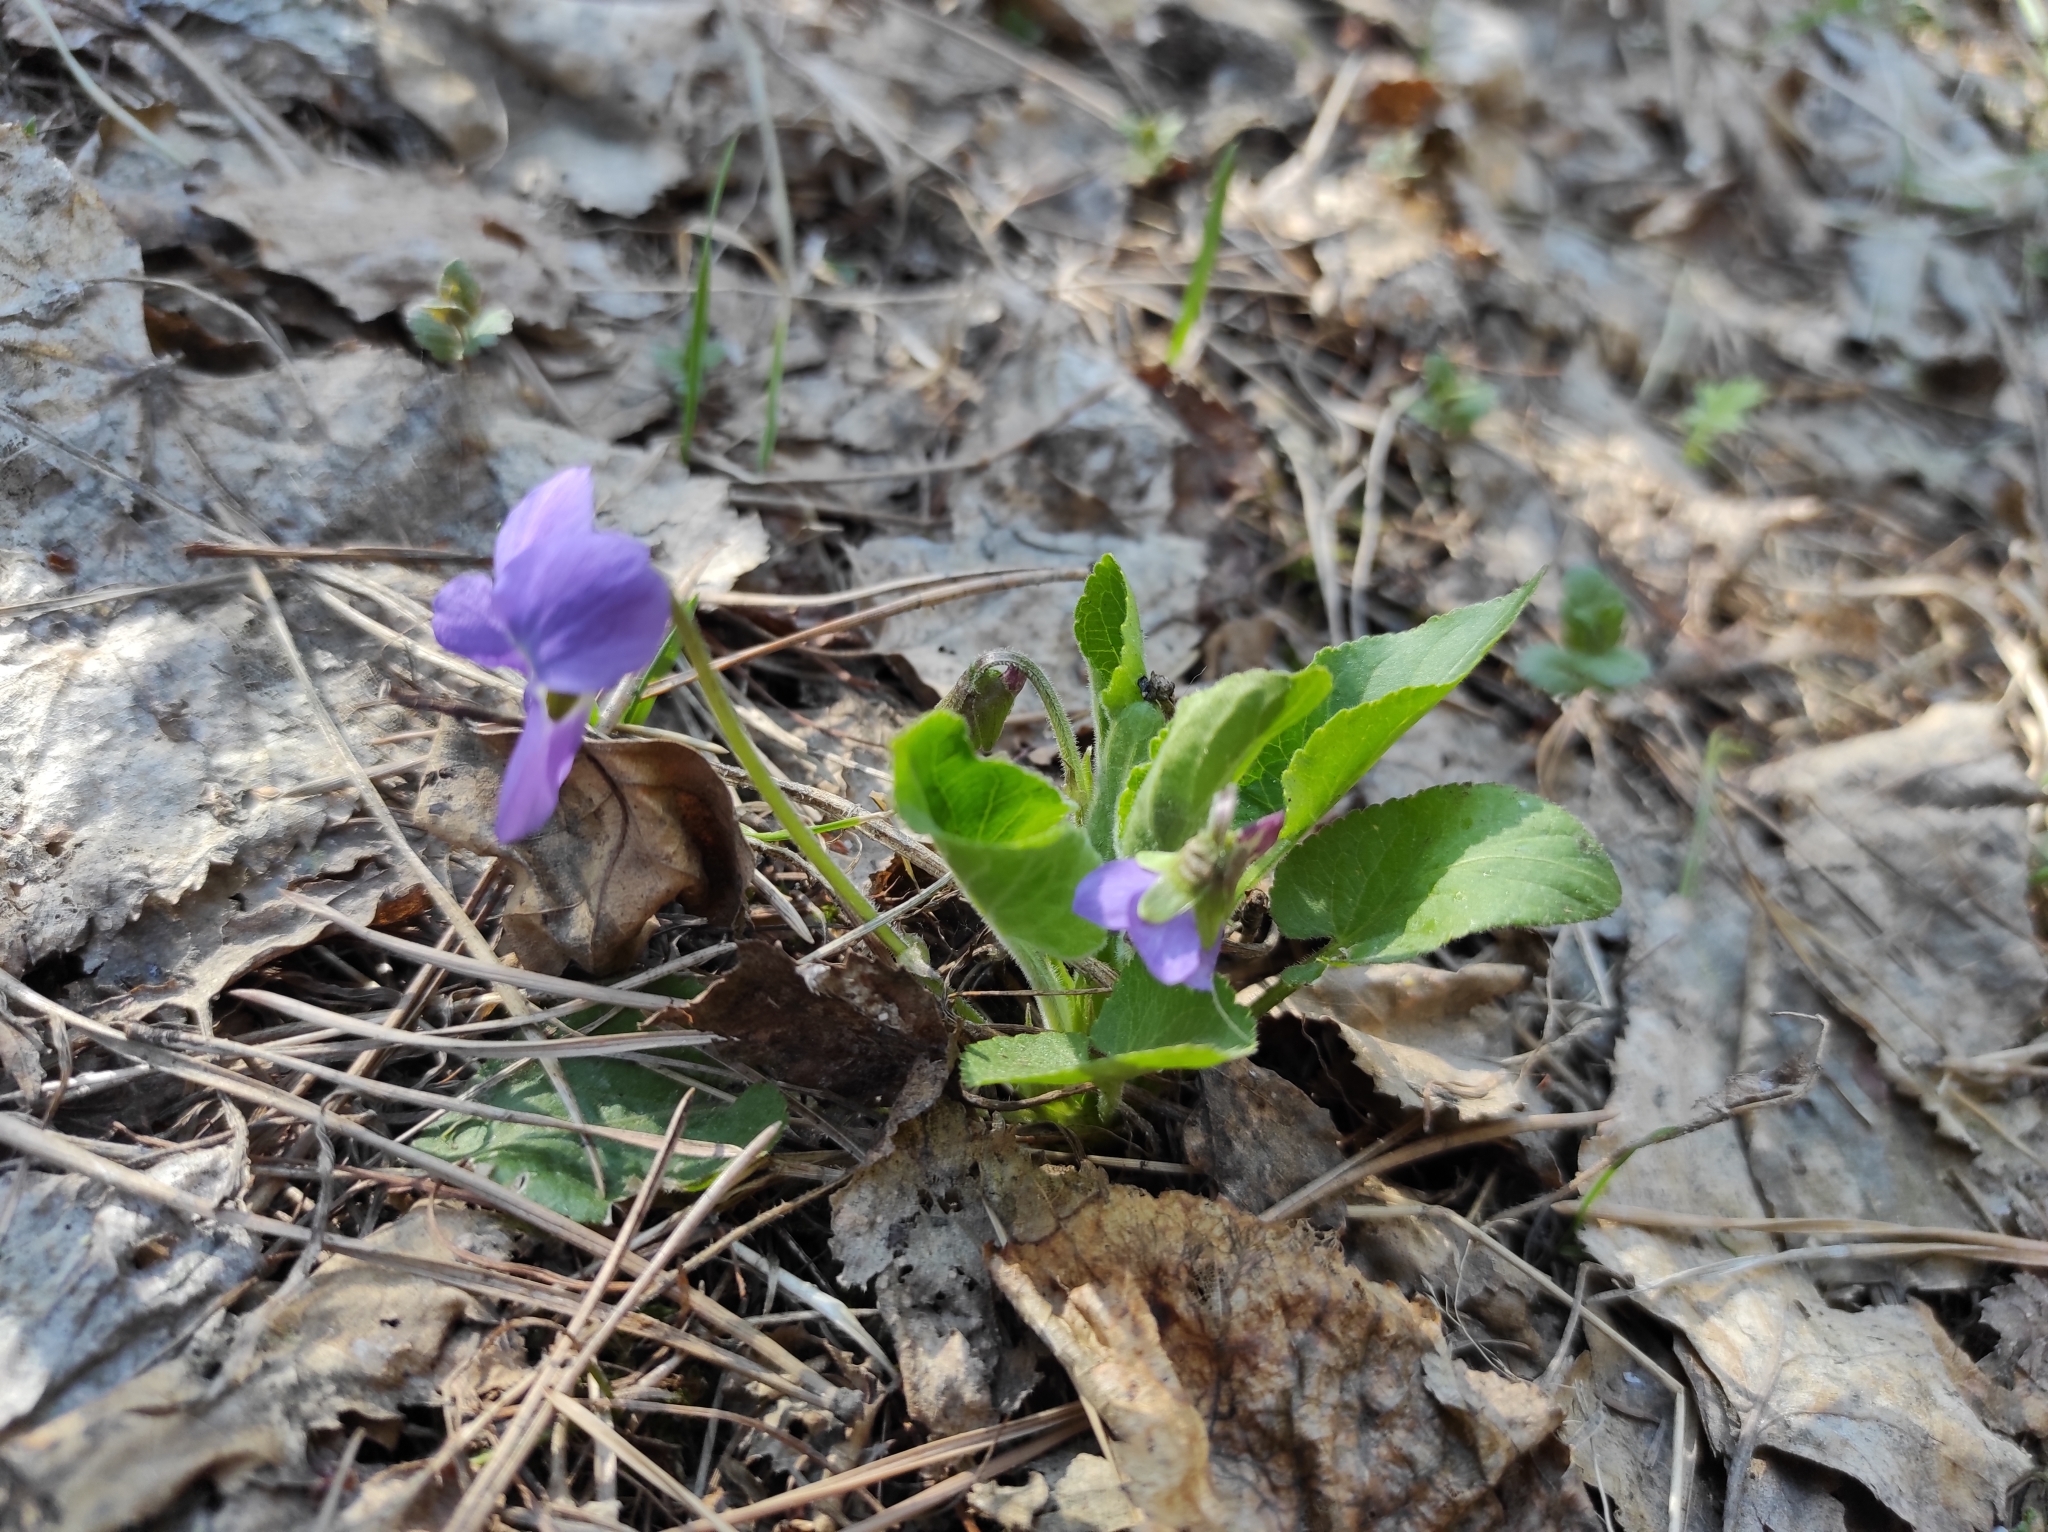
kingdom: Plantae
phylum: Tracheophyta
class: Magnoliopsida
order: Malpighiales
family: Violaceae
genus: Viola
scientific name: Viola hirta
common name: Hairy violet
